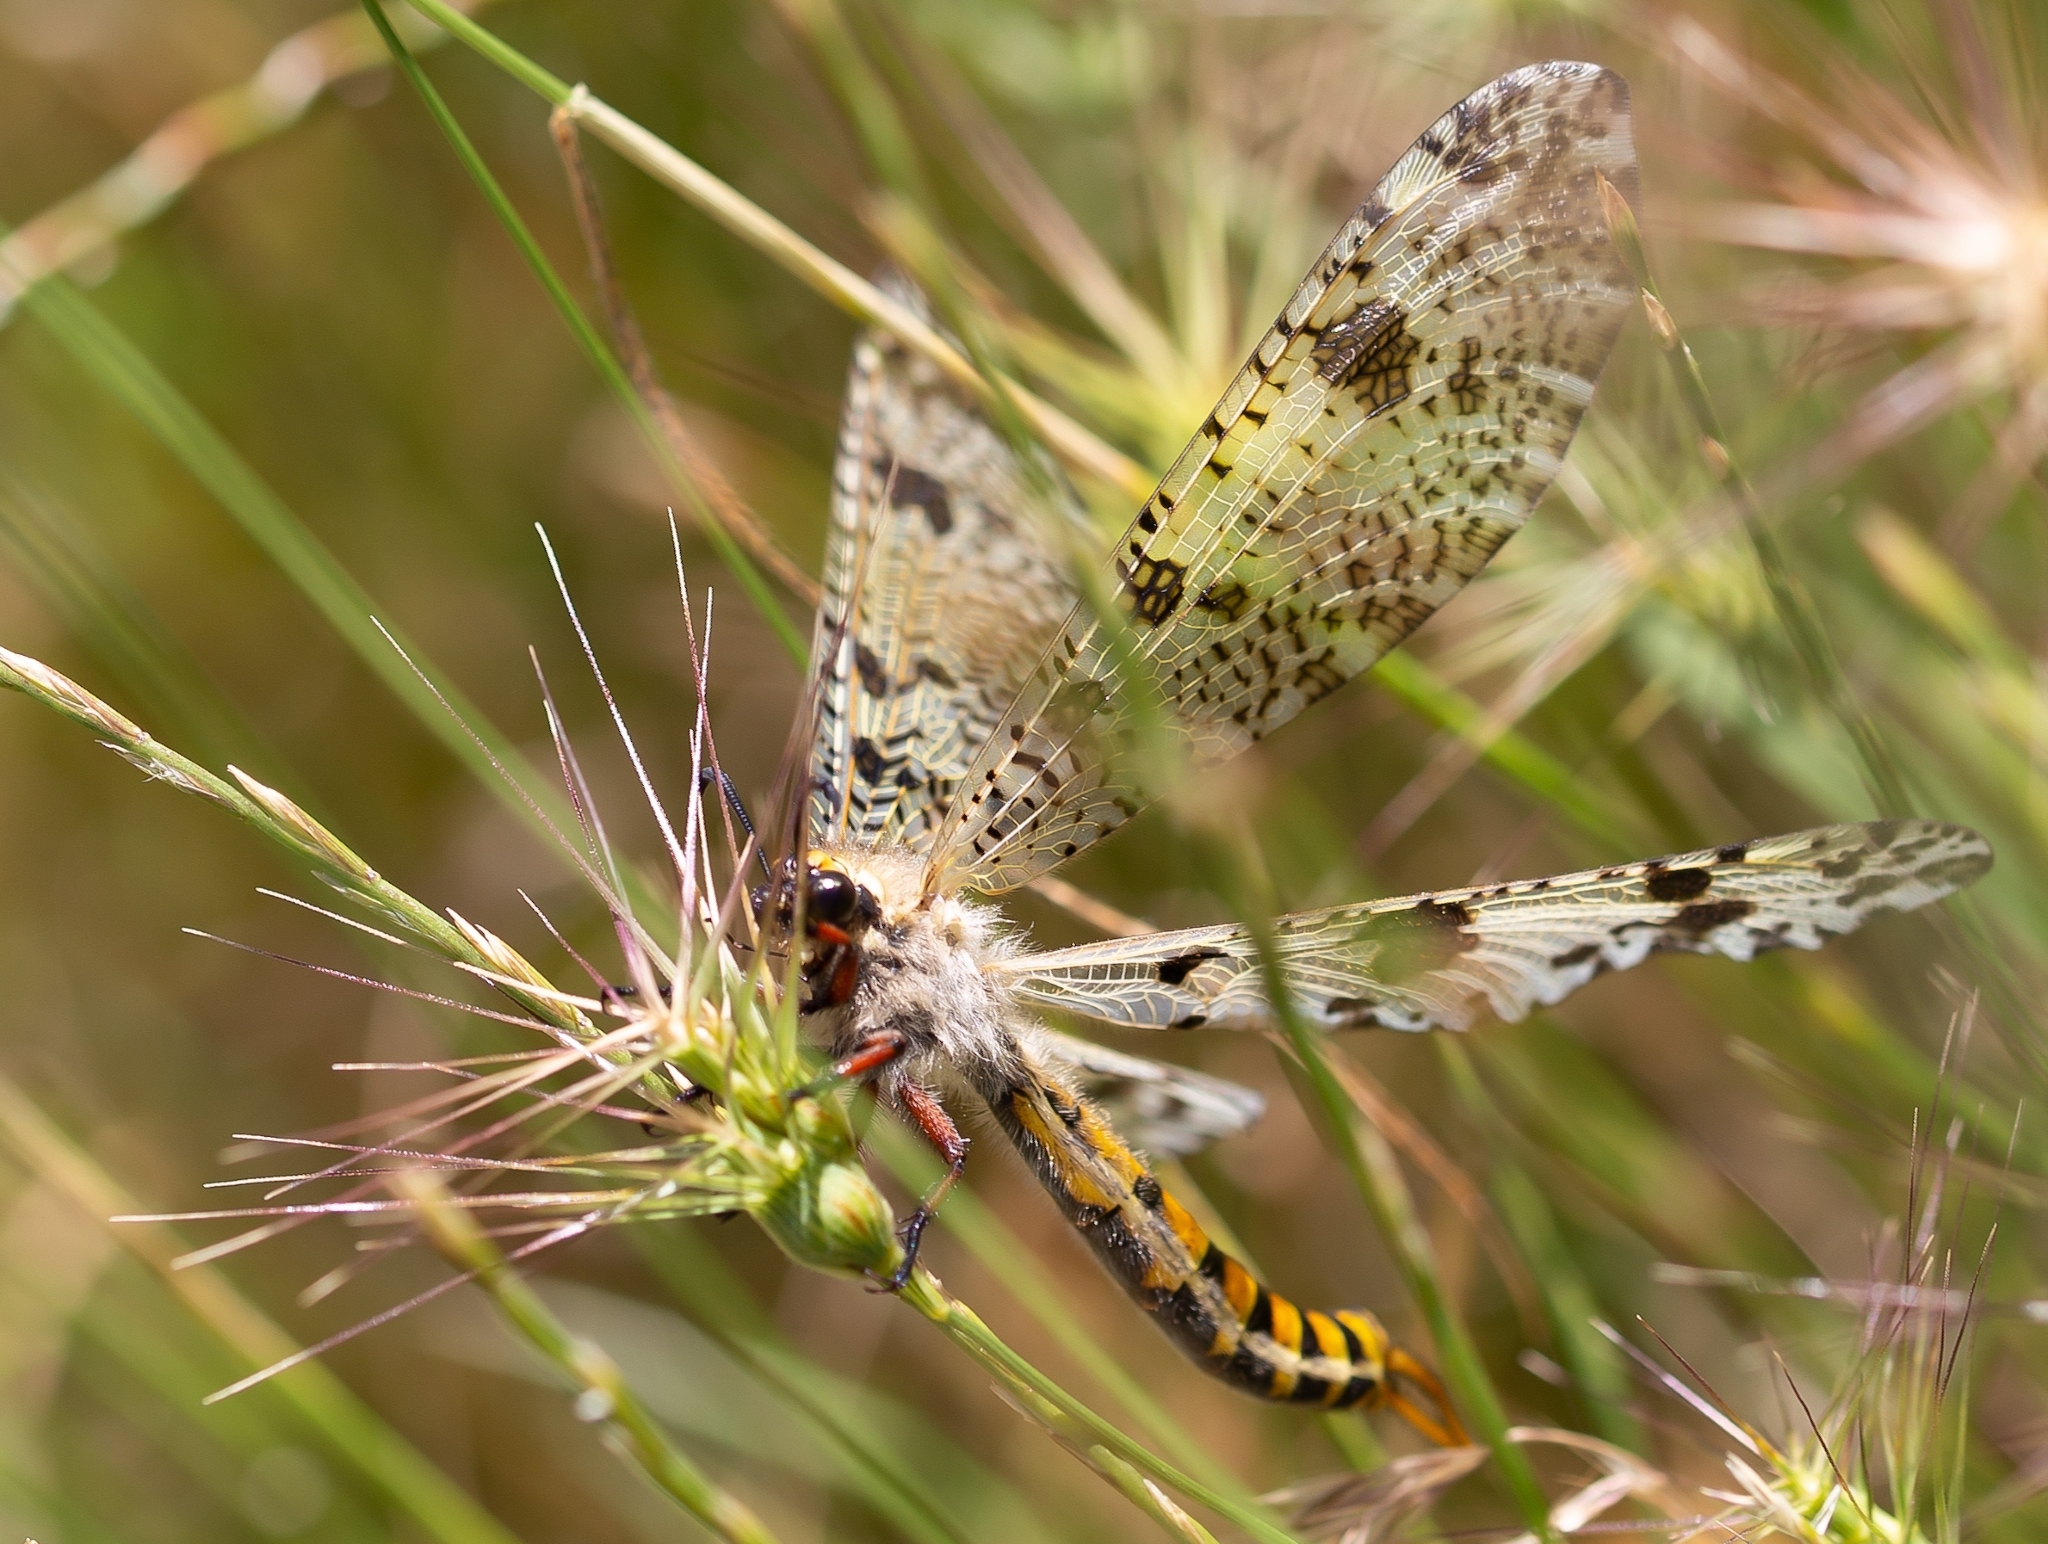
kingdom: Animalia
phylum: Arthropoda
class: Insecta
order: Neuroptera
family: Myrmeleontidae
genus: Palpares
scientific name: Palpares hispanus
